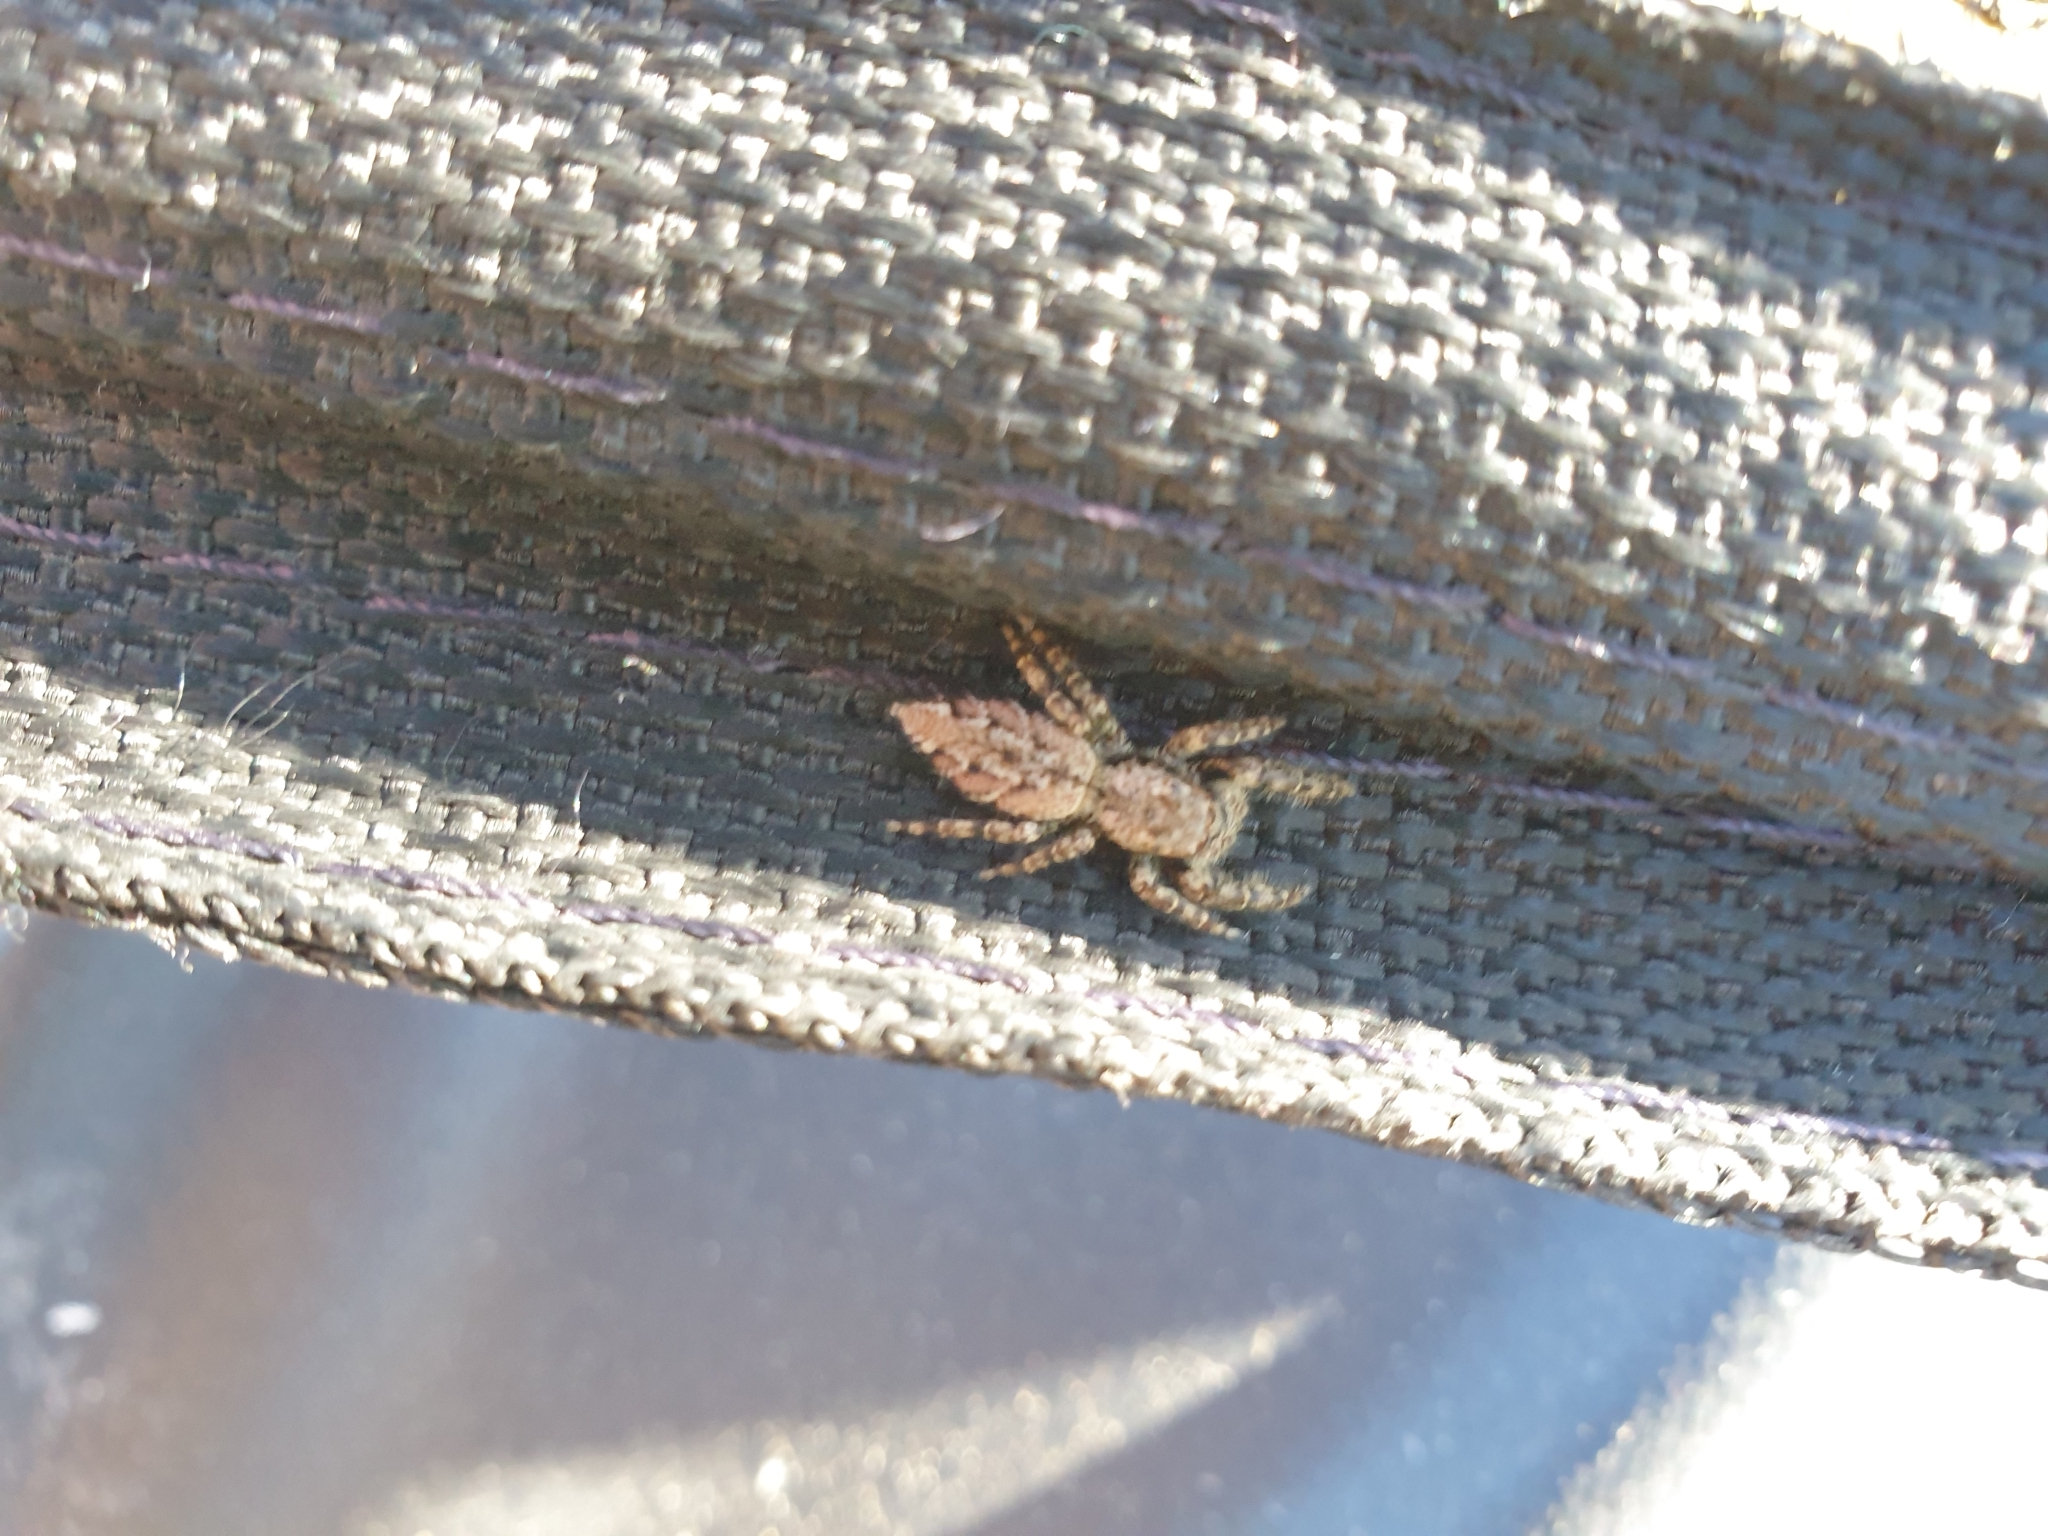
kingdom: Animalia
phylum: Arthropoda
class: Arachnida
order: Araneae
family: Salticidae
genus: Marpissa
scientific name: Marpissa muscosa
